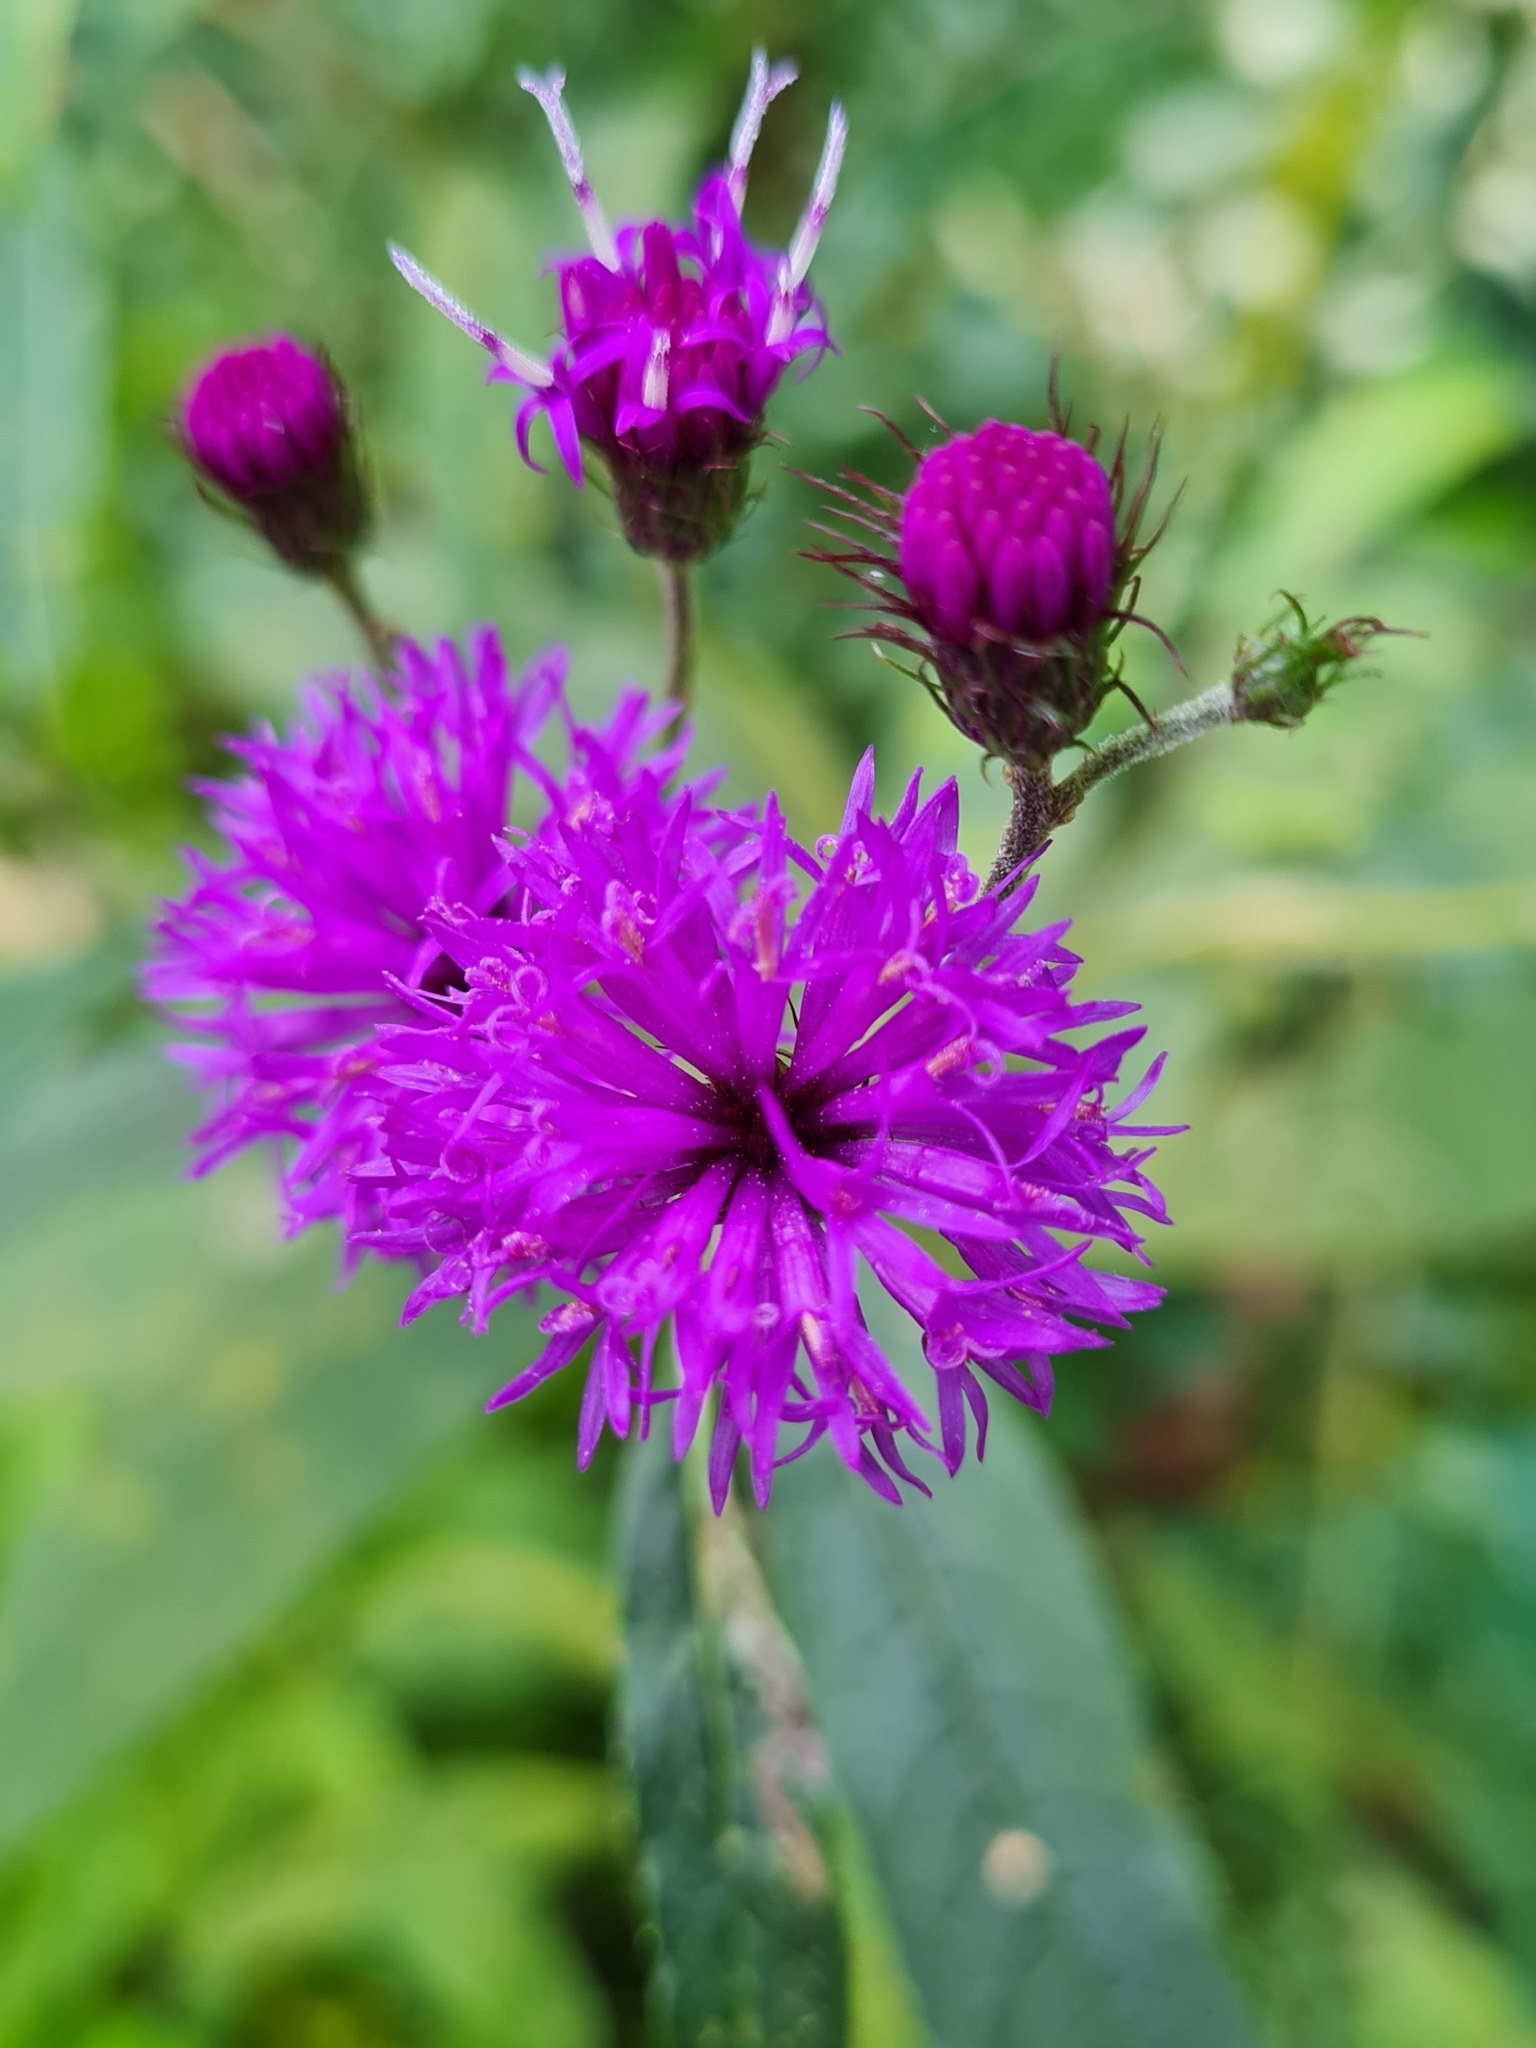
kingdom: Plantae
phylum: Tracheophyta
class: Magnoliopsida
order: Asterales
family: Asteraceae
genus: Vernonia
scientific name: Vernonia noveboracensis
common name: New york ironweed
